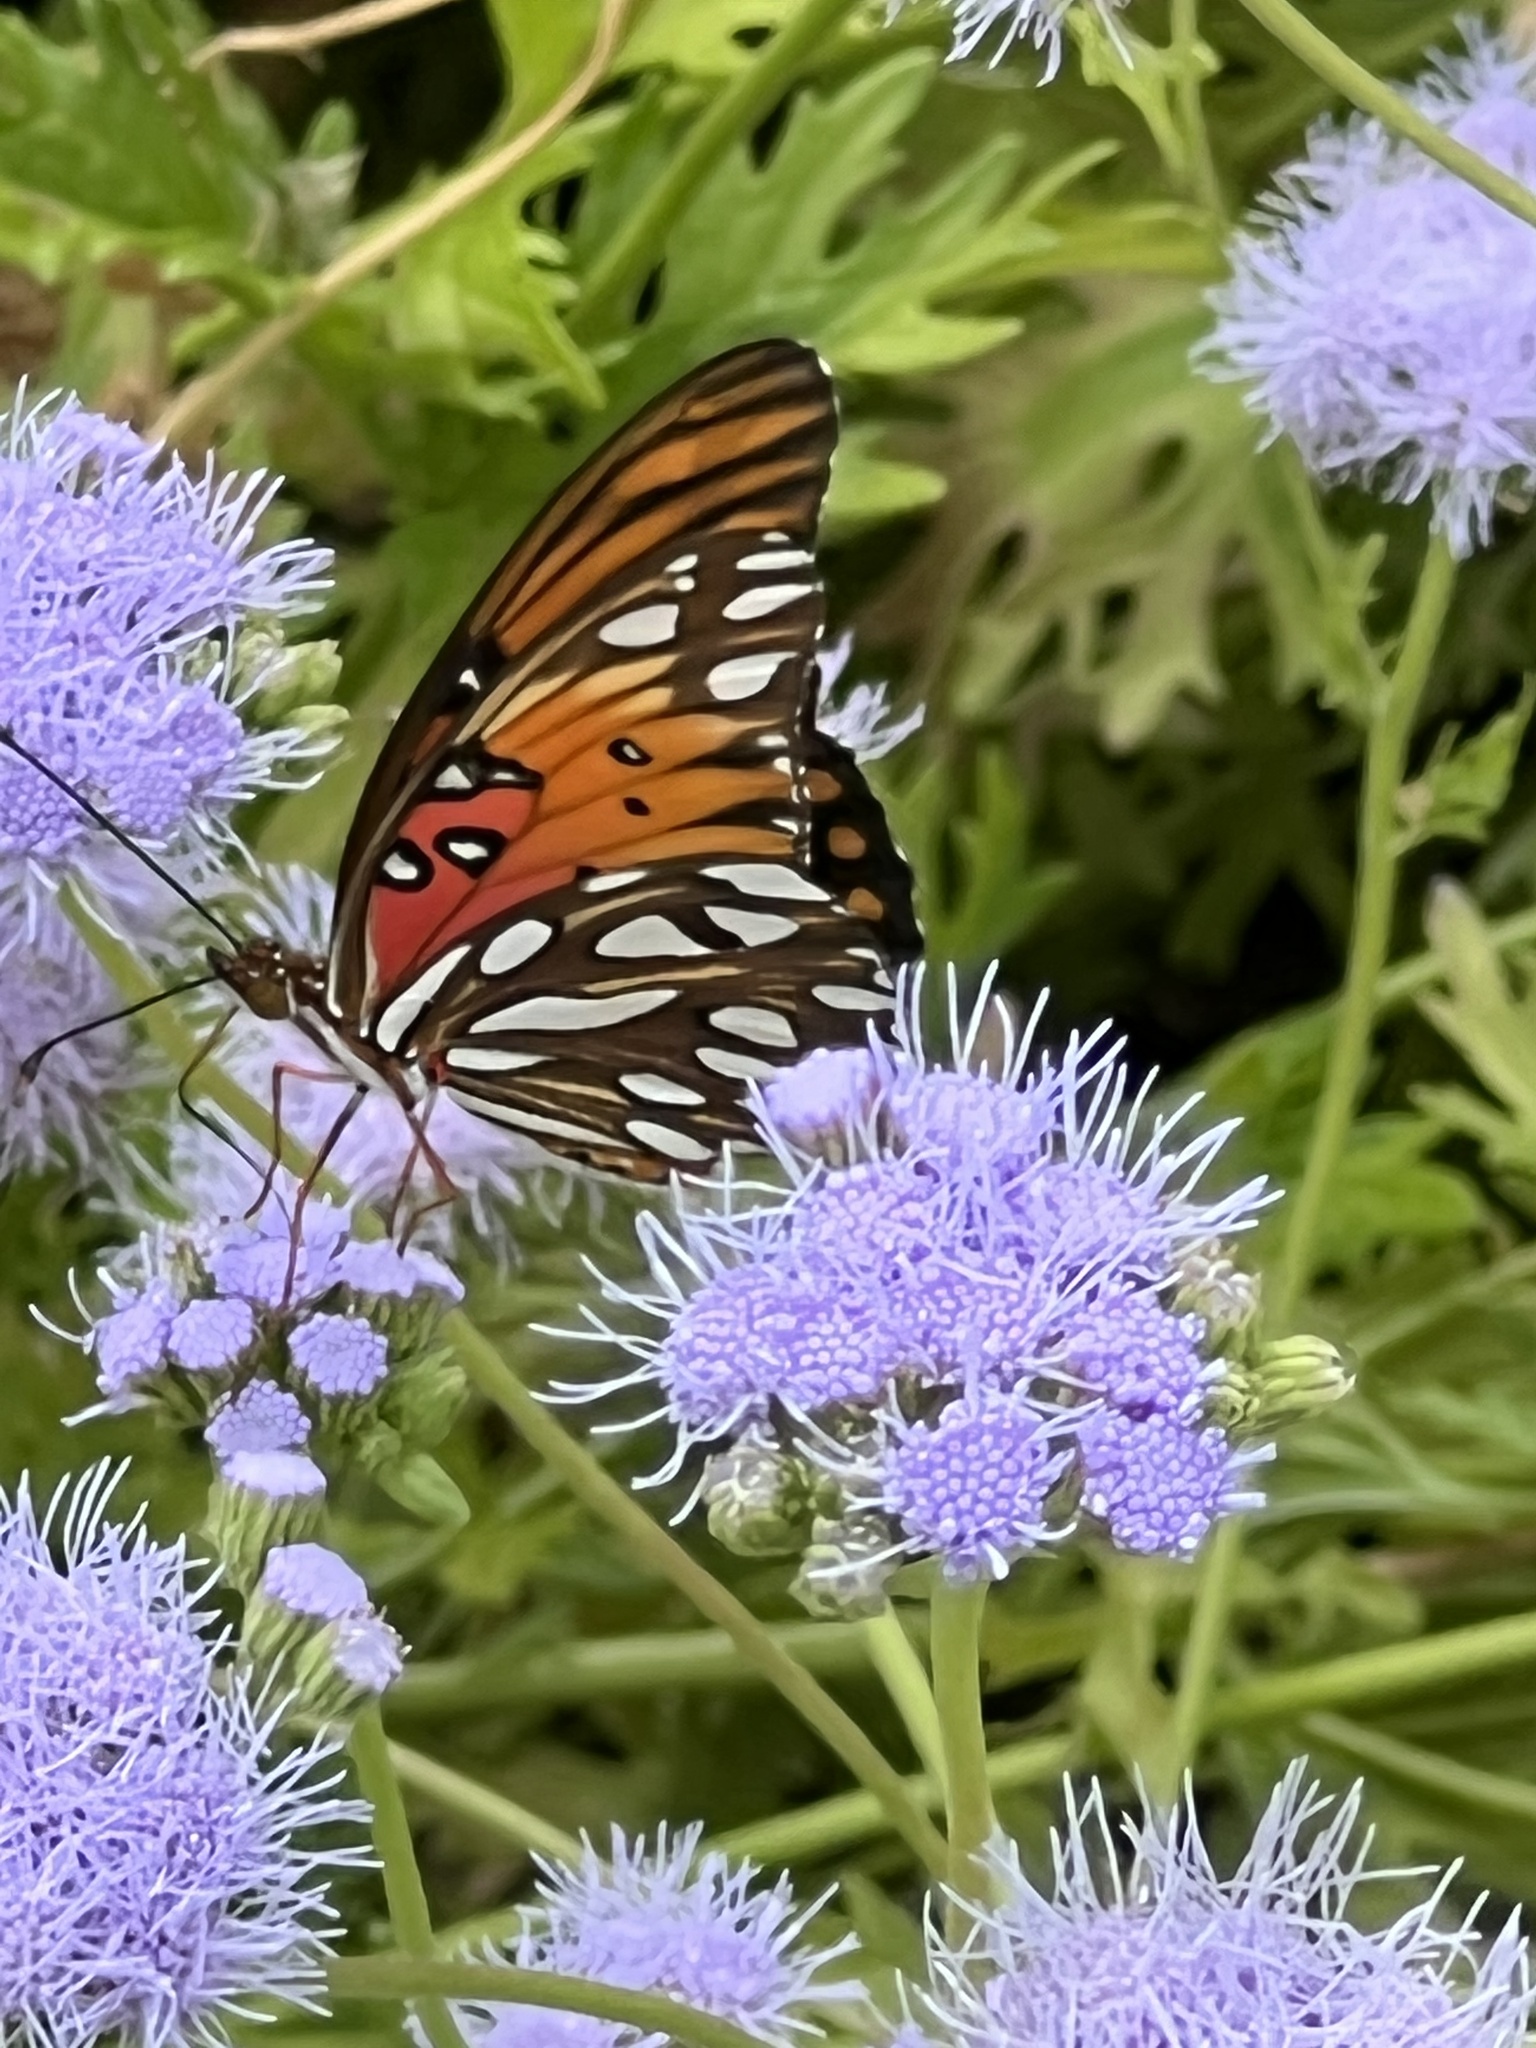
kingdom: Animalia
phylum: Arthropoda
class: Insecta
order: Lepidoptera
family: Nymphalidae
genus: Dione
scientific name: Dione vanillae
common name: Gulf fritillary
